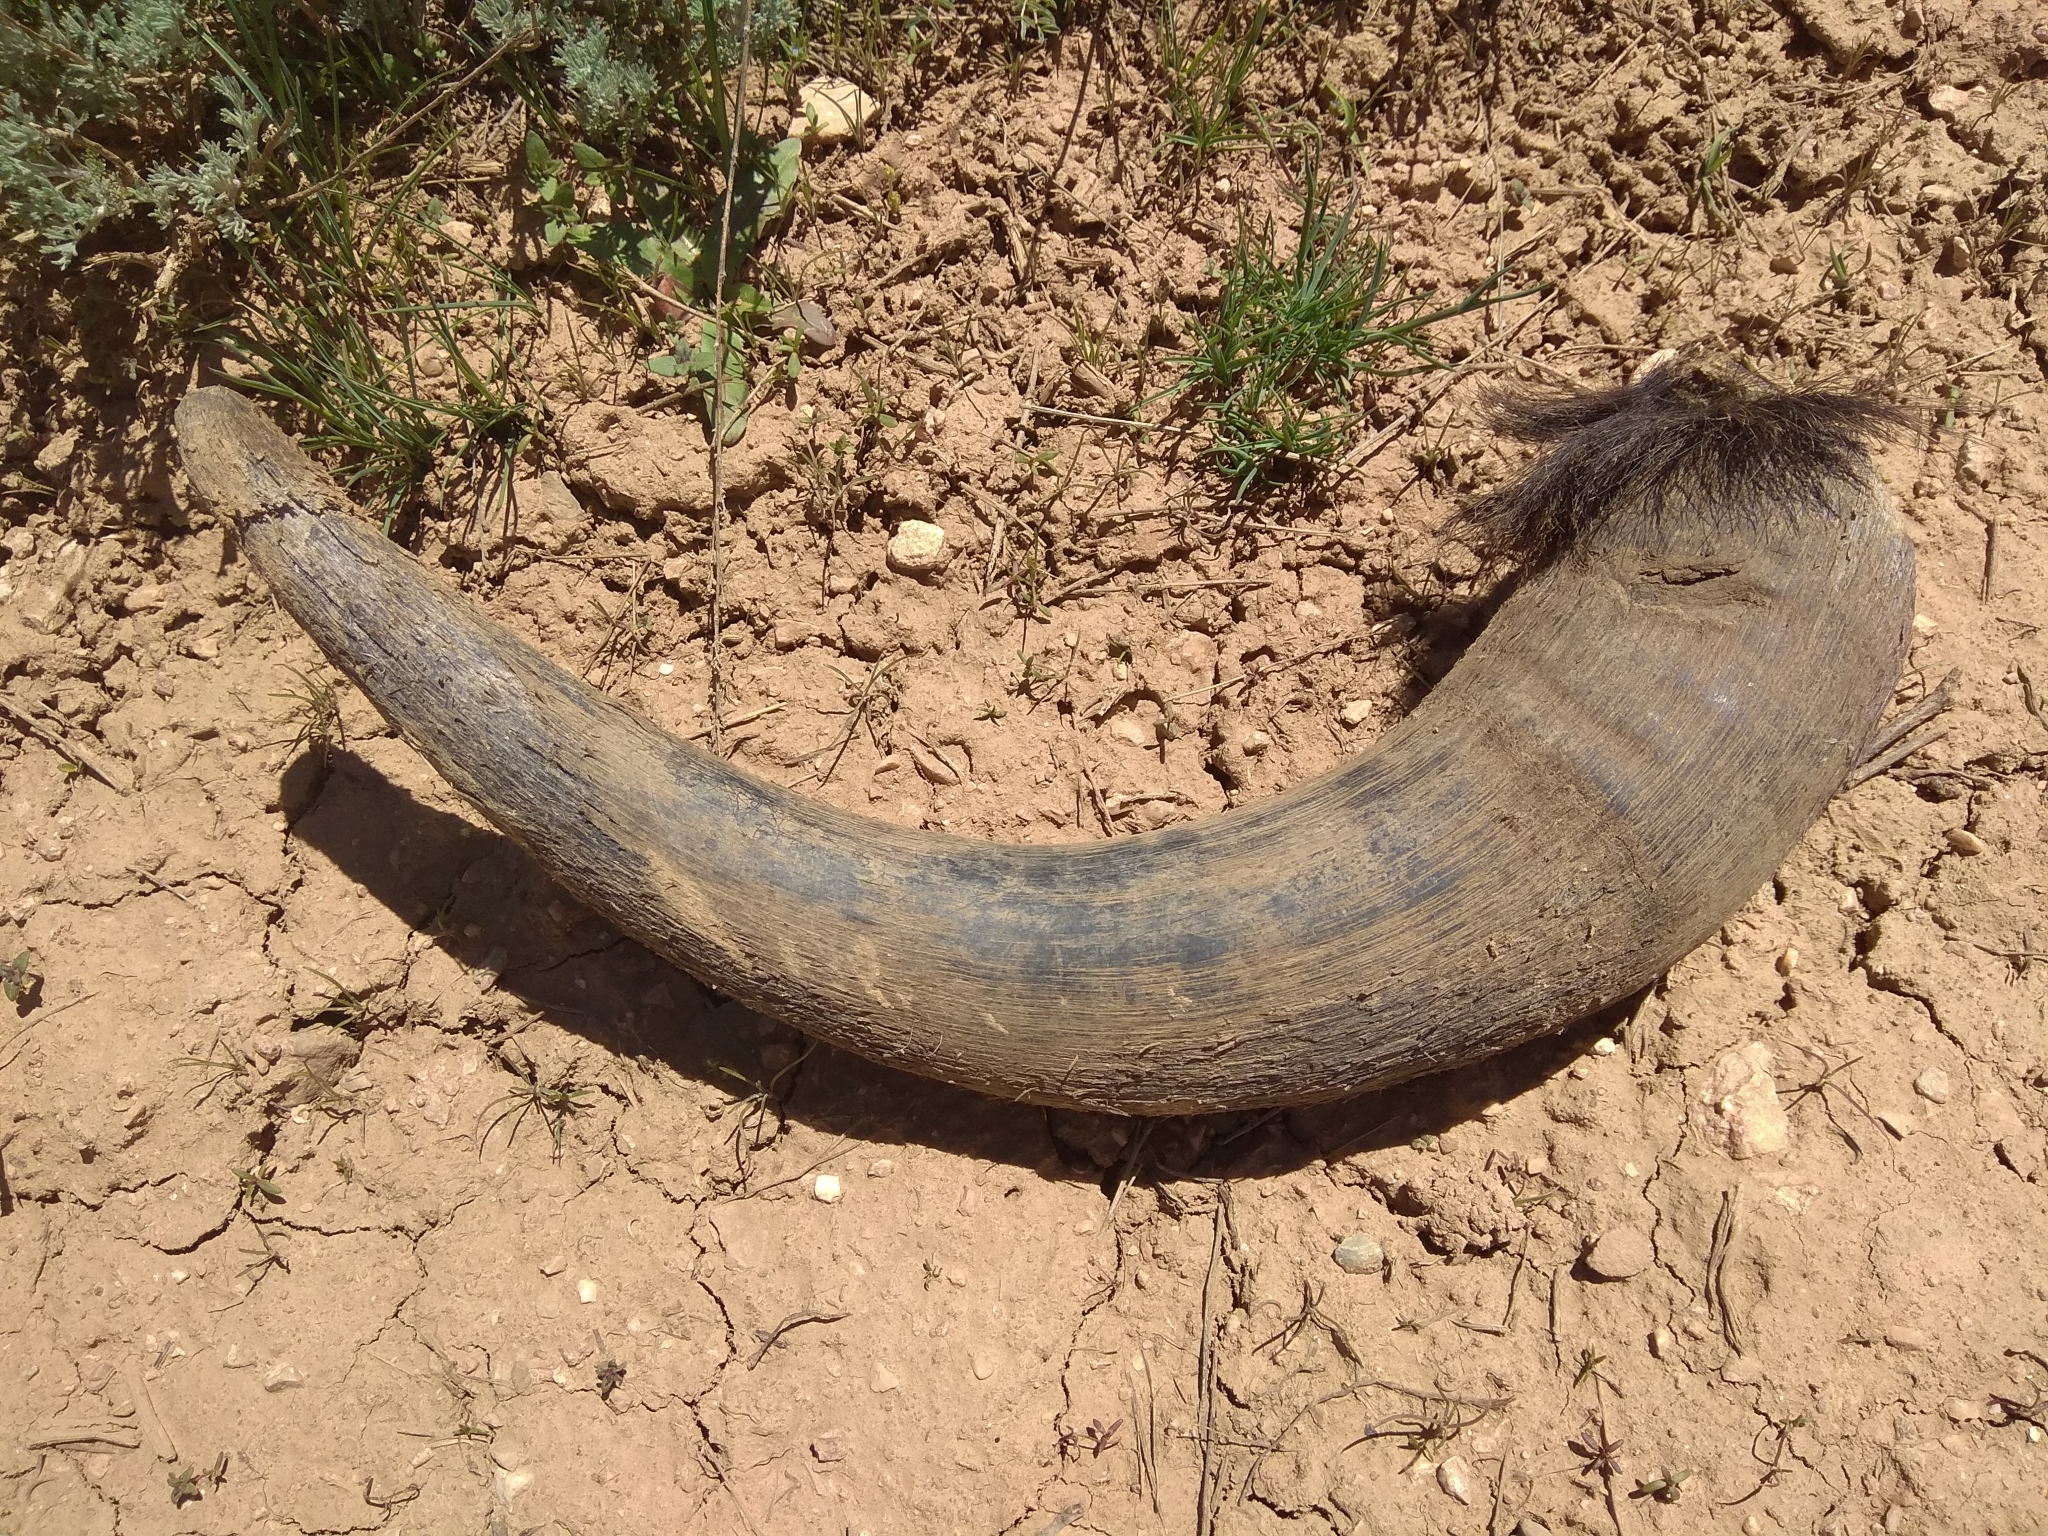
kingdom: Animalia
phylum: Chordata
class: Mammalia
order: Artiodactyla
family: Bovidae
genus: Bos
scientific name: Bos grunniens
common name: Yak
